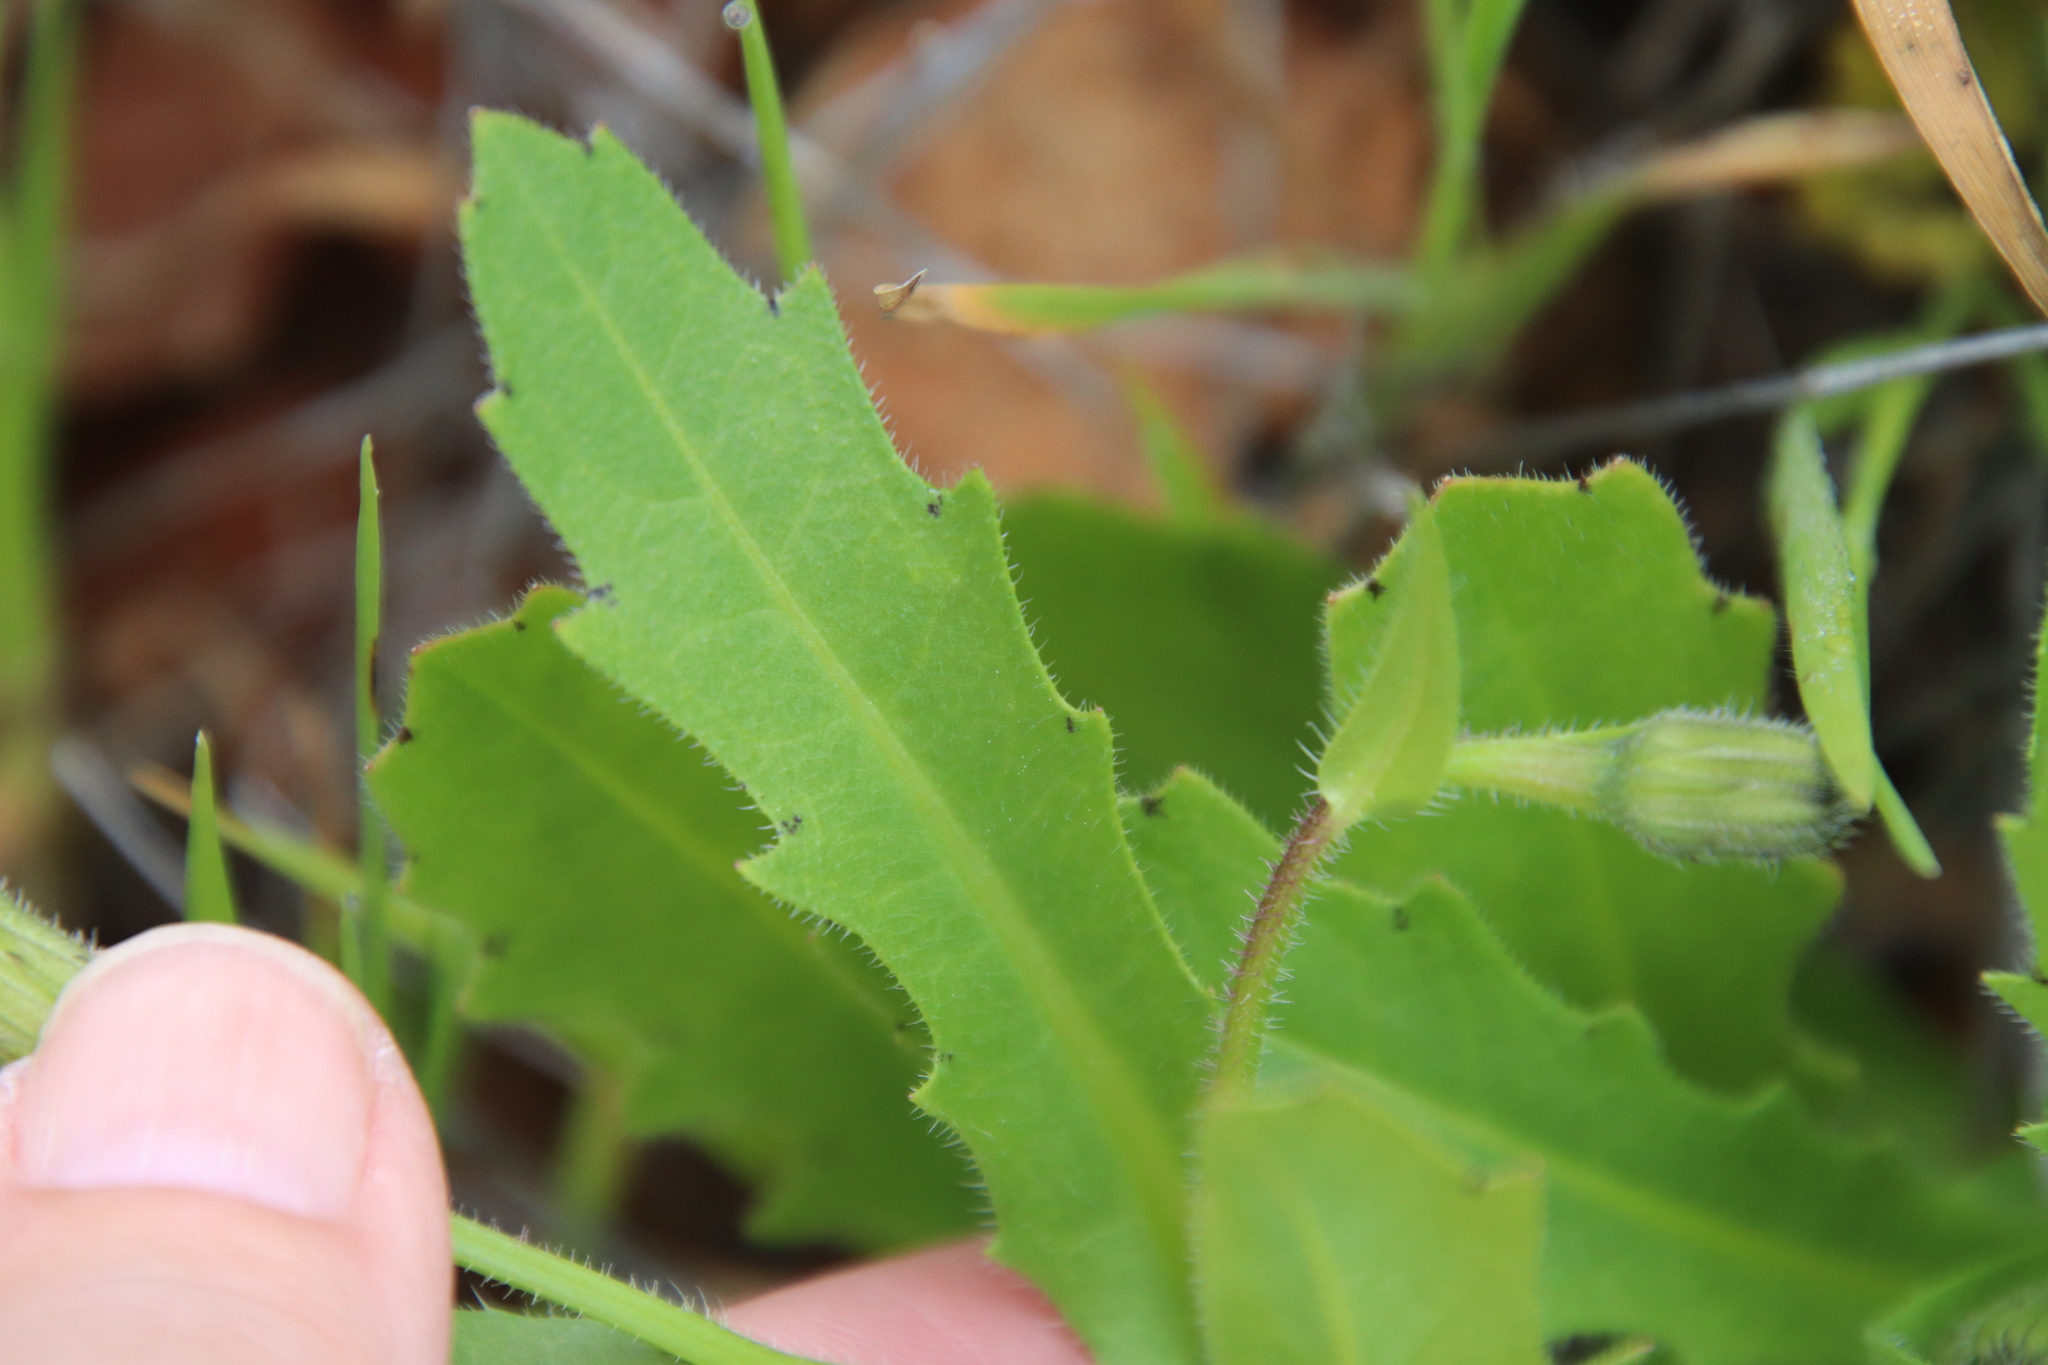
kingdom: Plantae
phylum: Tracheophyta
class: Magnoliopsida
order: Asterales
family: Asteraceae
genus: Hedypnois
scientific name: Hedypnois rhagadioloides
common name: Cretan weed
